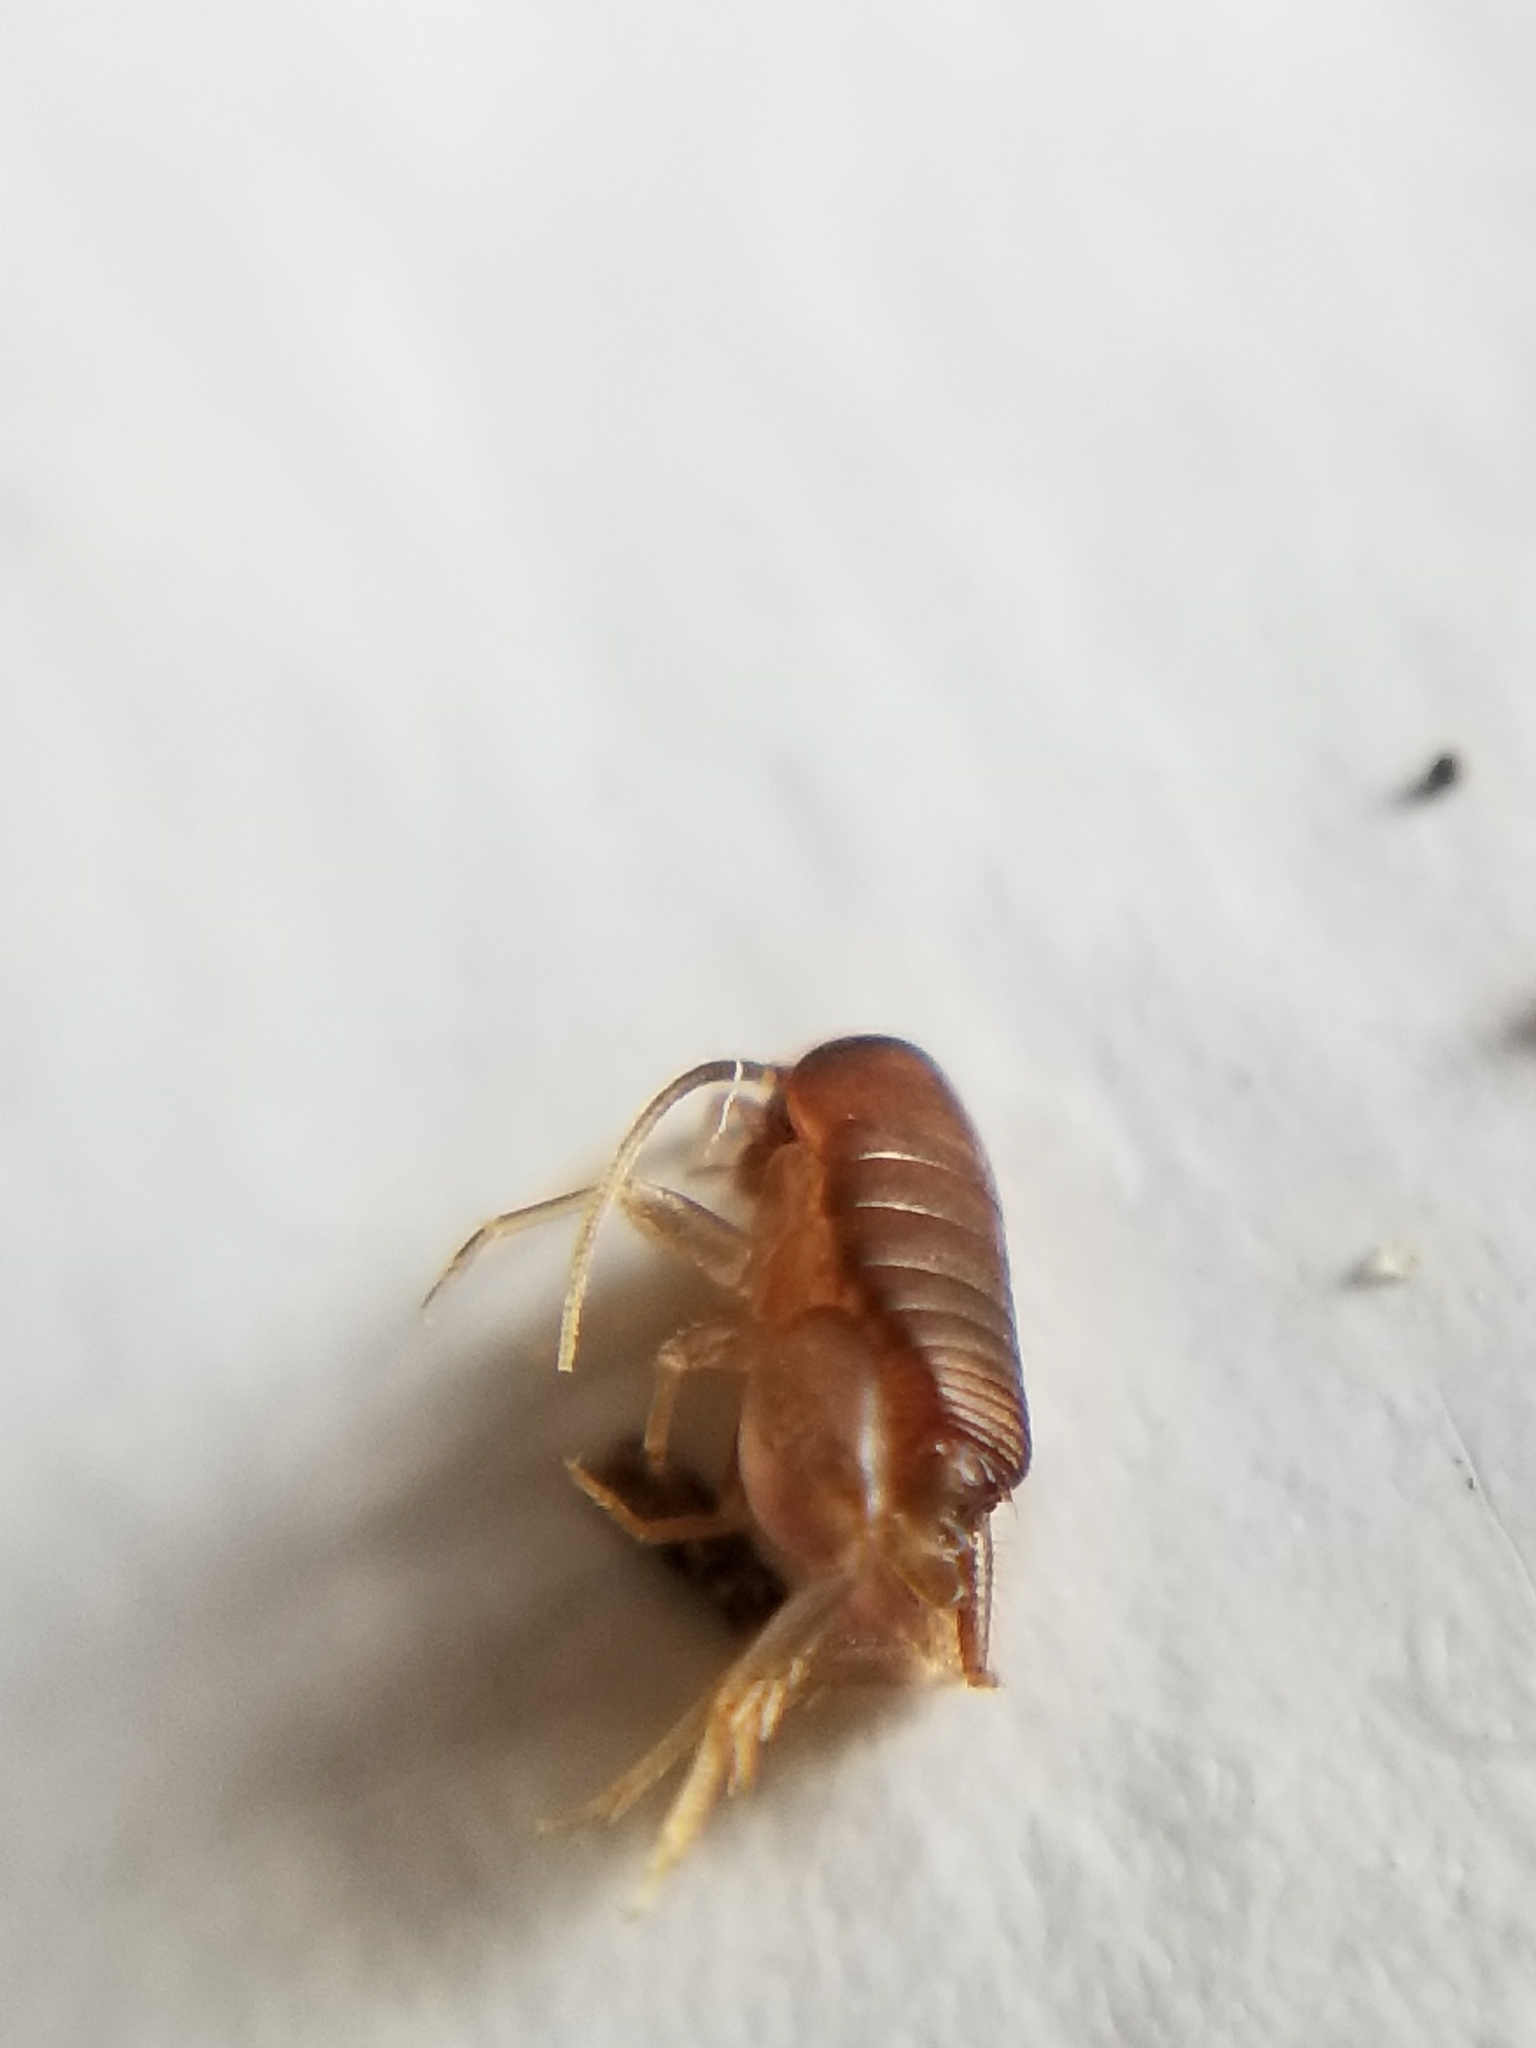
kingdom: Animalia
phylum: Arthropoda
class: Insecta
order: Orthoptera
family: Myrmecophilidae
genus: Myrmecophilus
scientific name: Myrmecophilus manni
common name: Mann’s ant cricket
